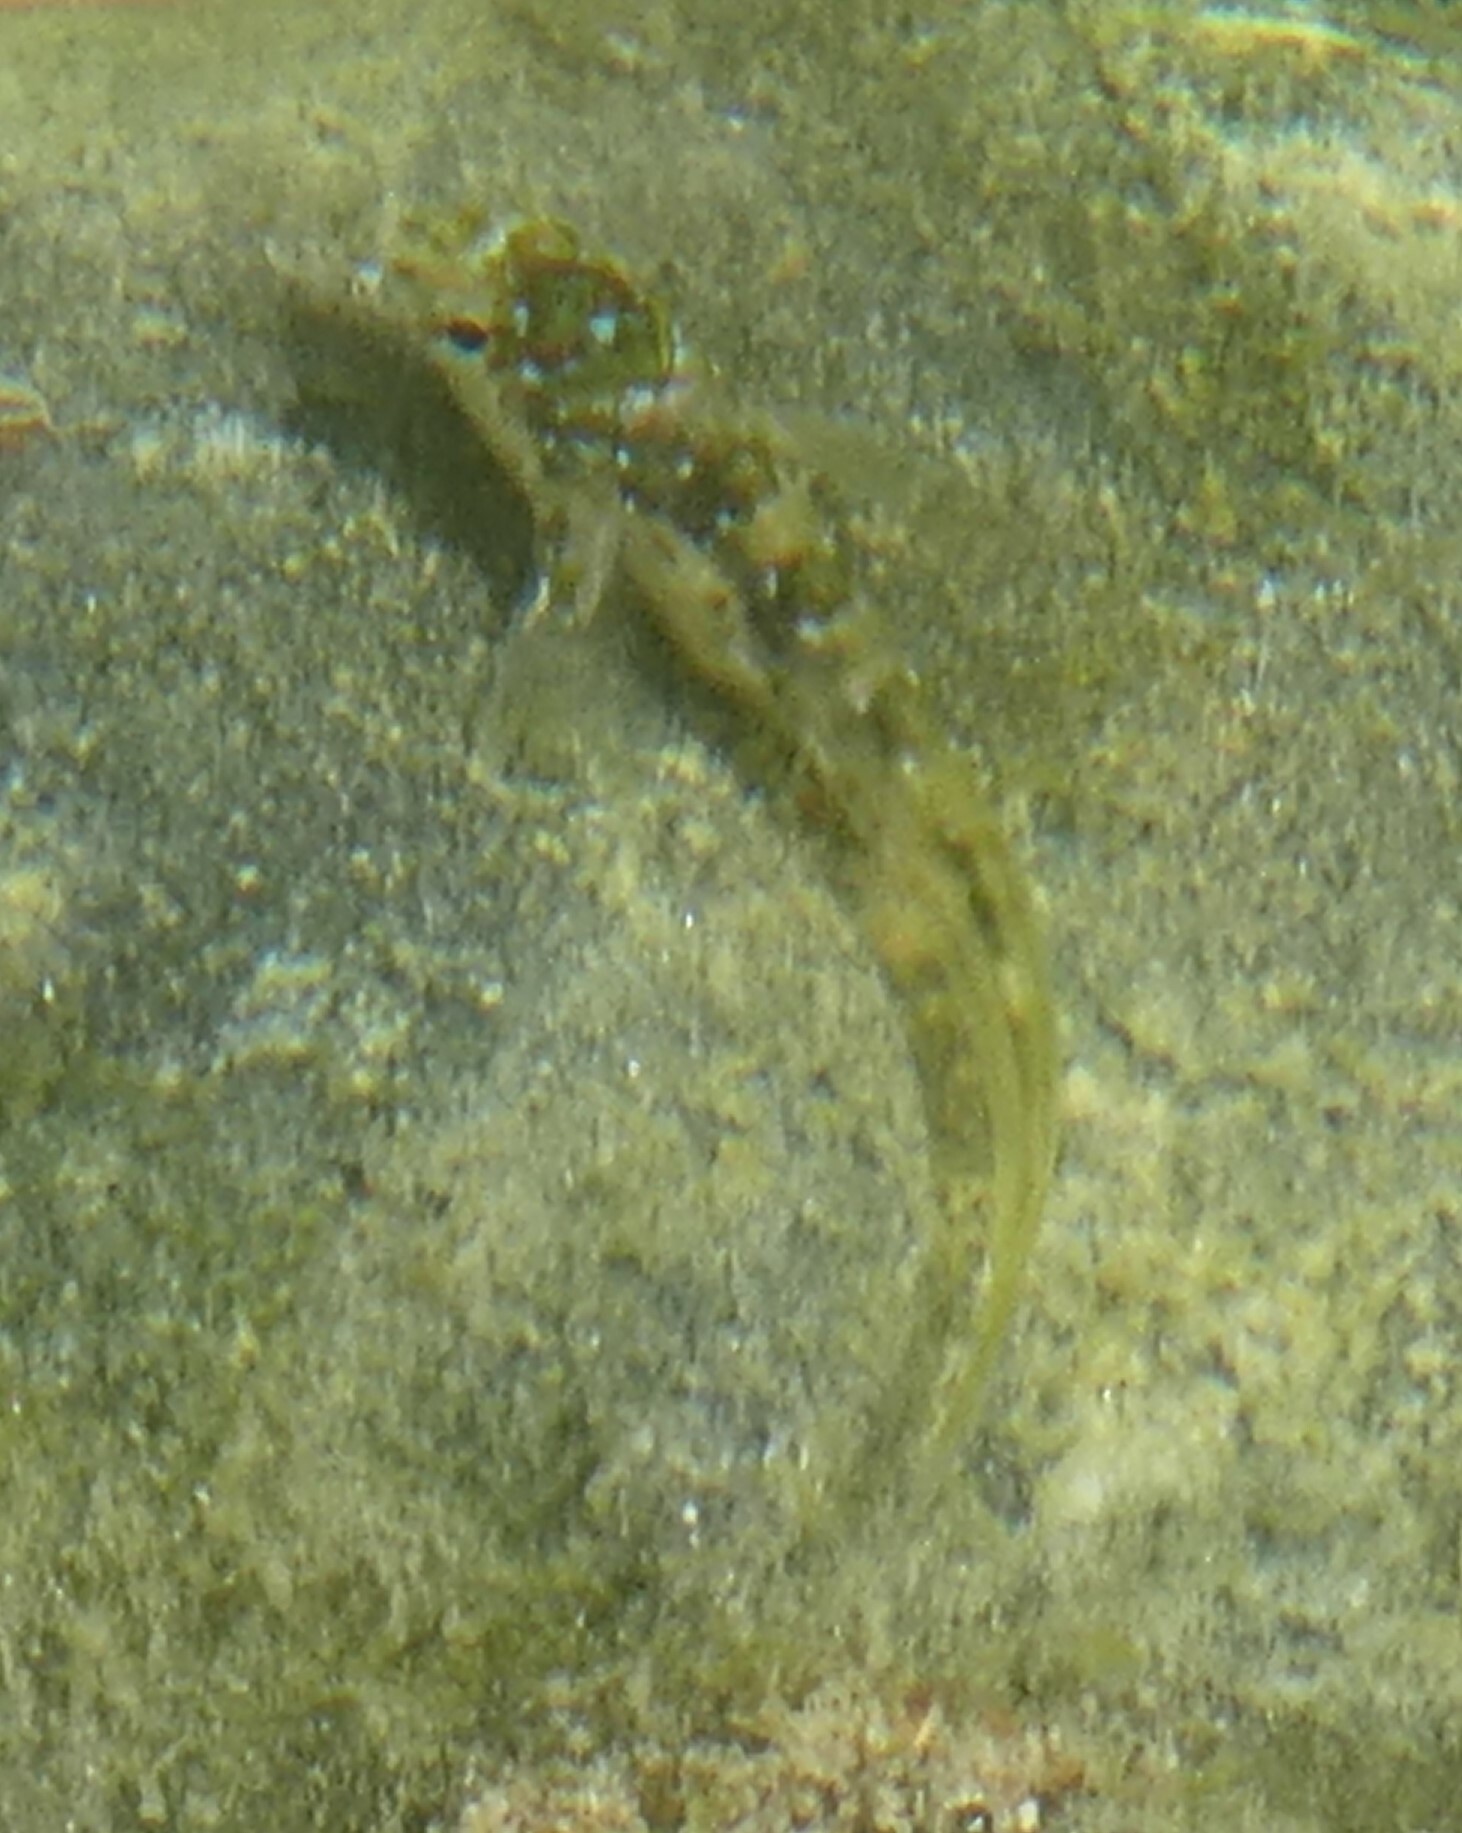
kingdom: Animalia
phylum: Chordata
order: Perciformes
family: Blenniidae
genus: Lipophrys
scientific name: Lipophrys pholis
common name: Shanny
